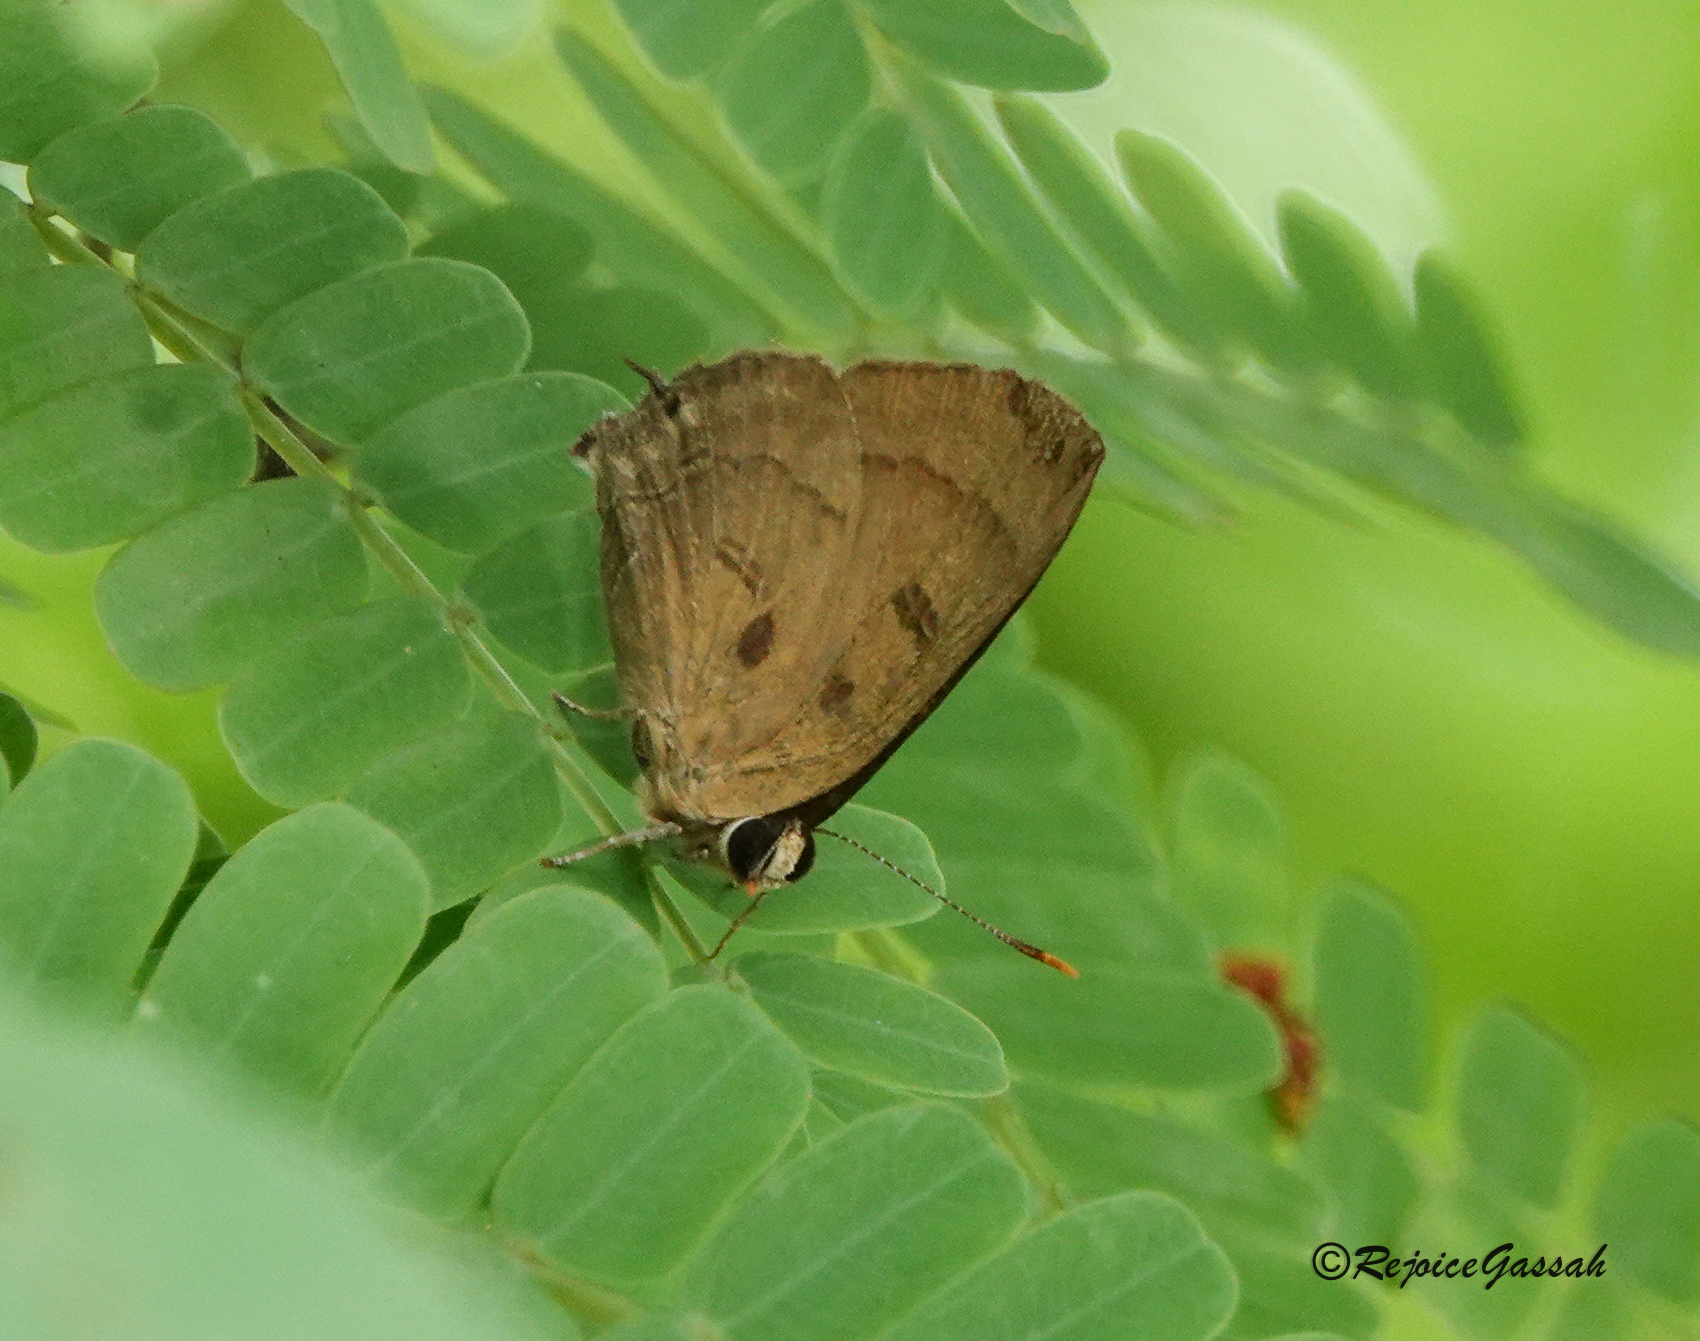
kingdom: Animalia
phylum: Arthropoda
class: Insecta
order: Lepidoptera
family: Lycaenidae
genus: Rapala
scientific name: Rapala pheretima
